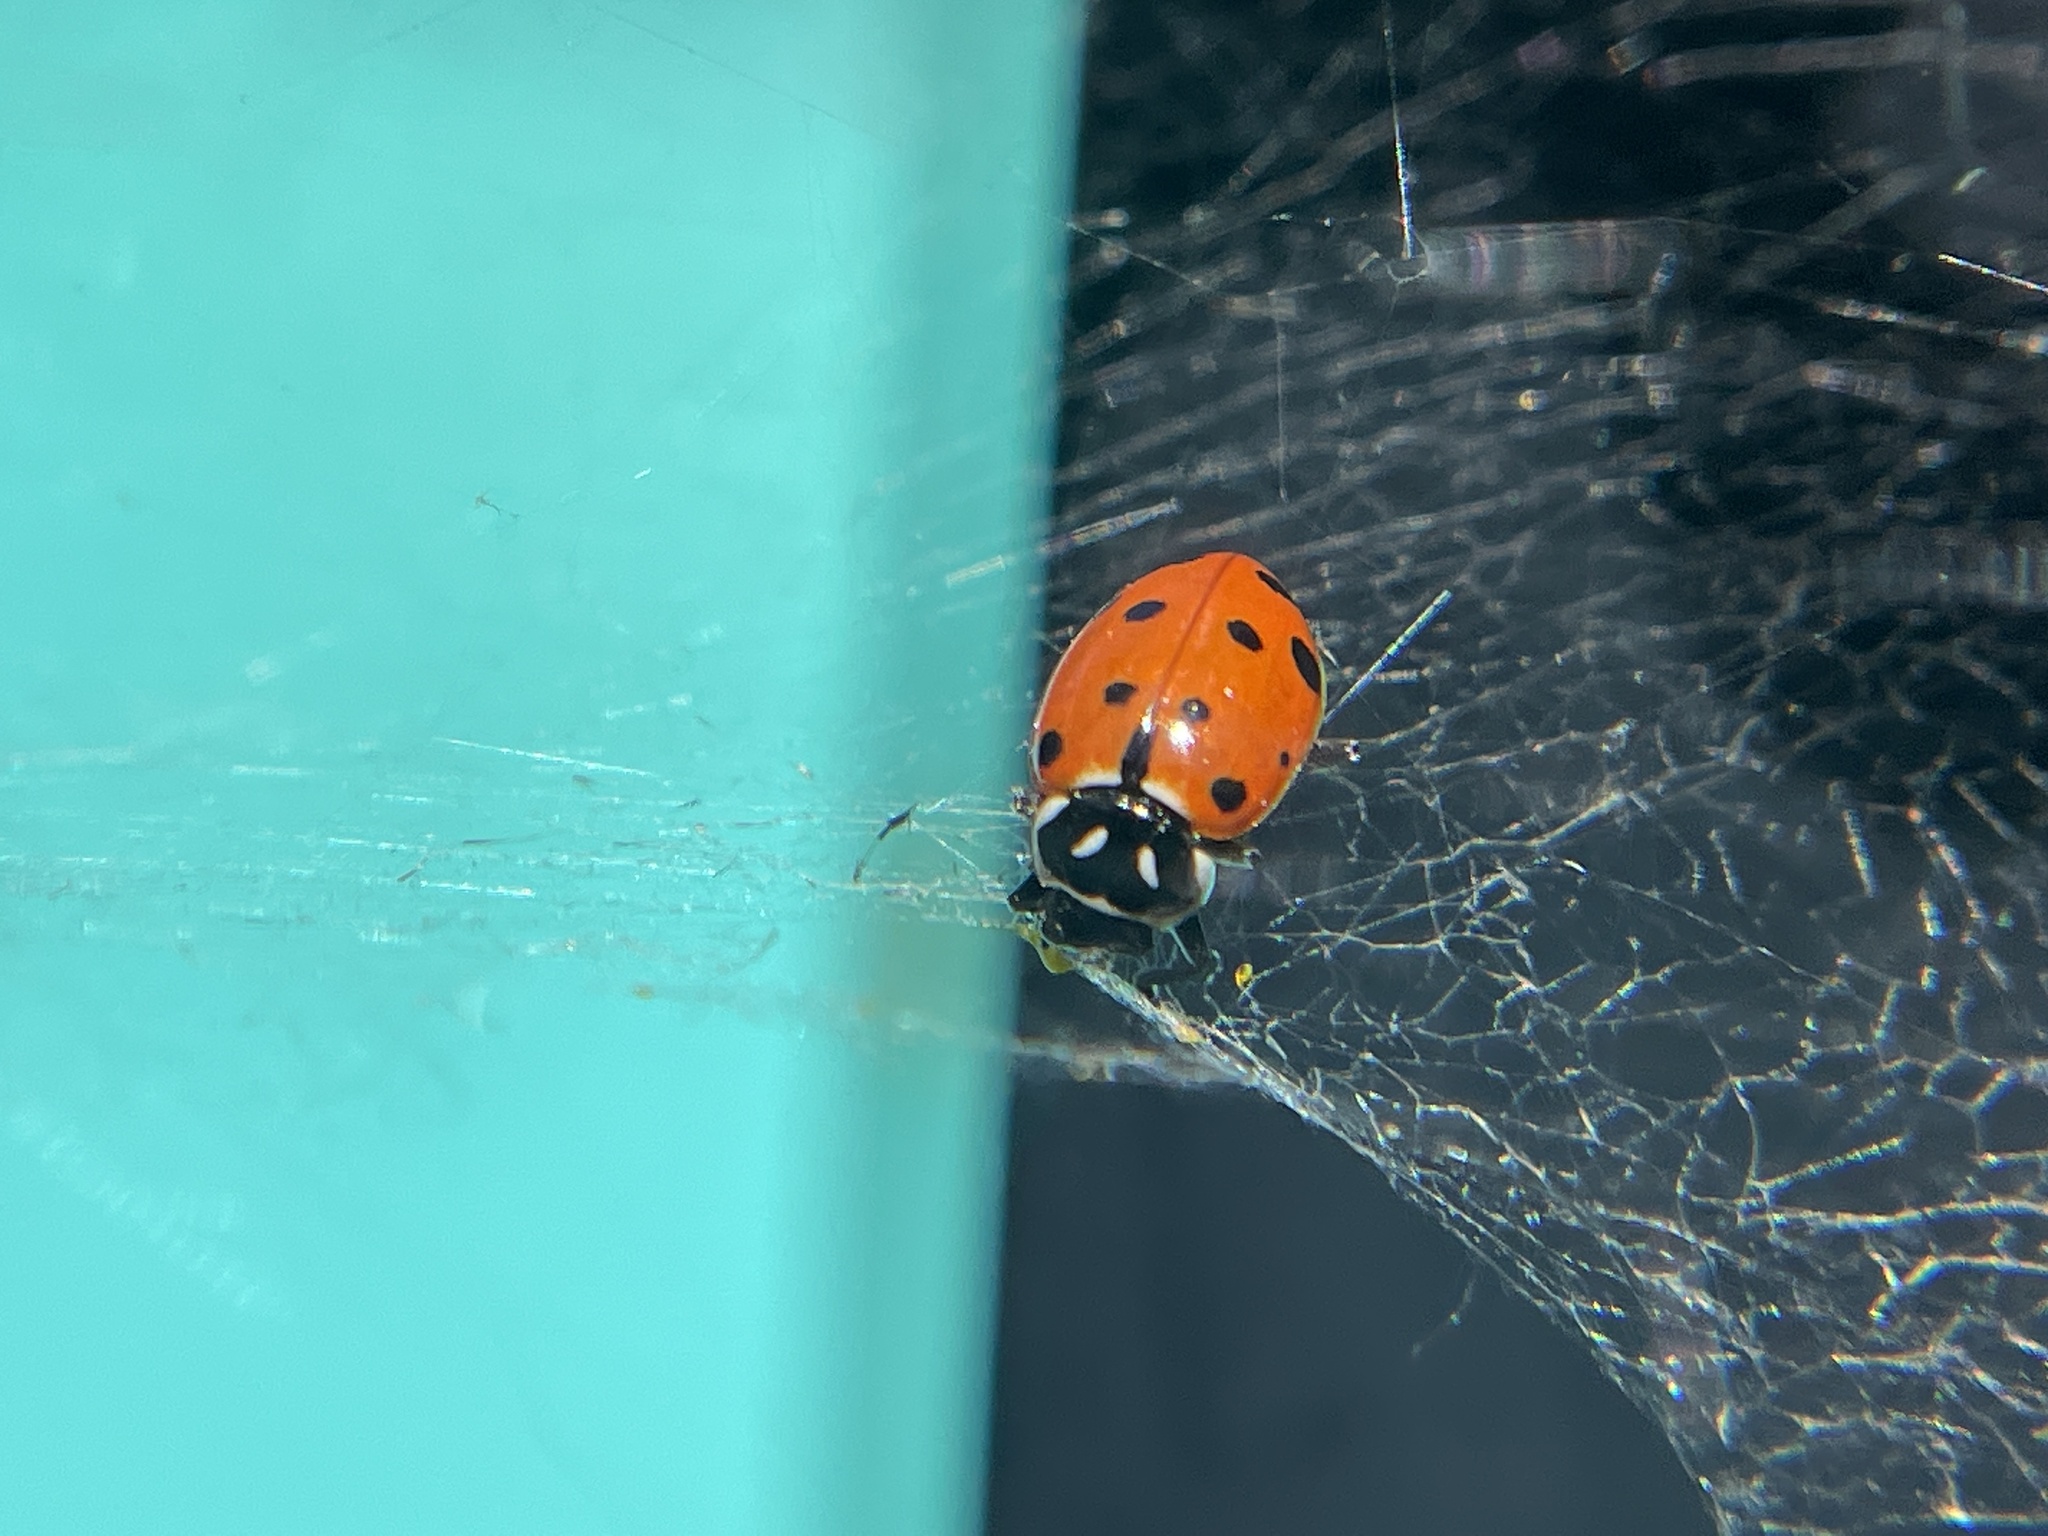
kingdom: Animalia
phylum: Arthropoda
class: Insecta
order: Coleoptera
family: Coccinellidae
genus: Hippodamia
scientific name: Hippodamia convergens
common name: Convergent lady beetle
